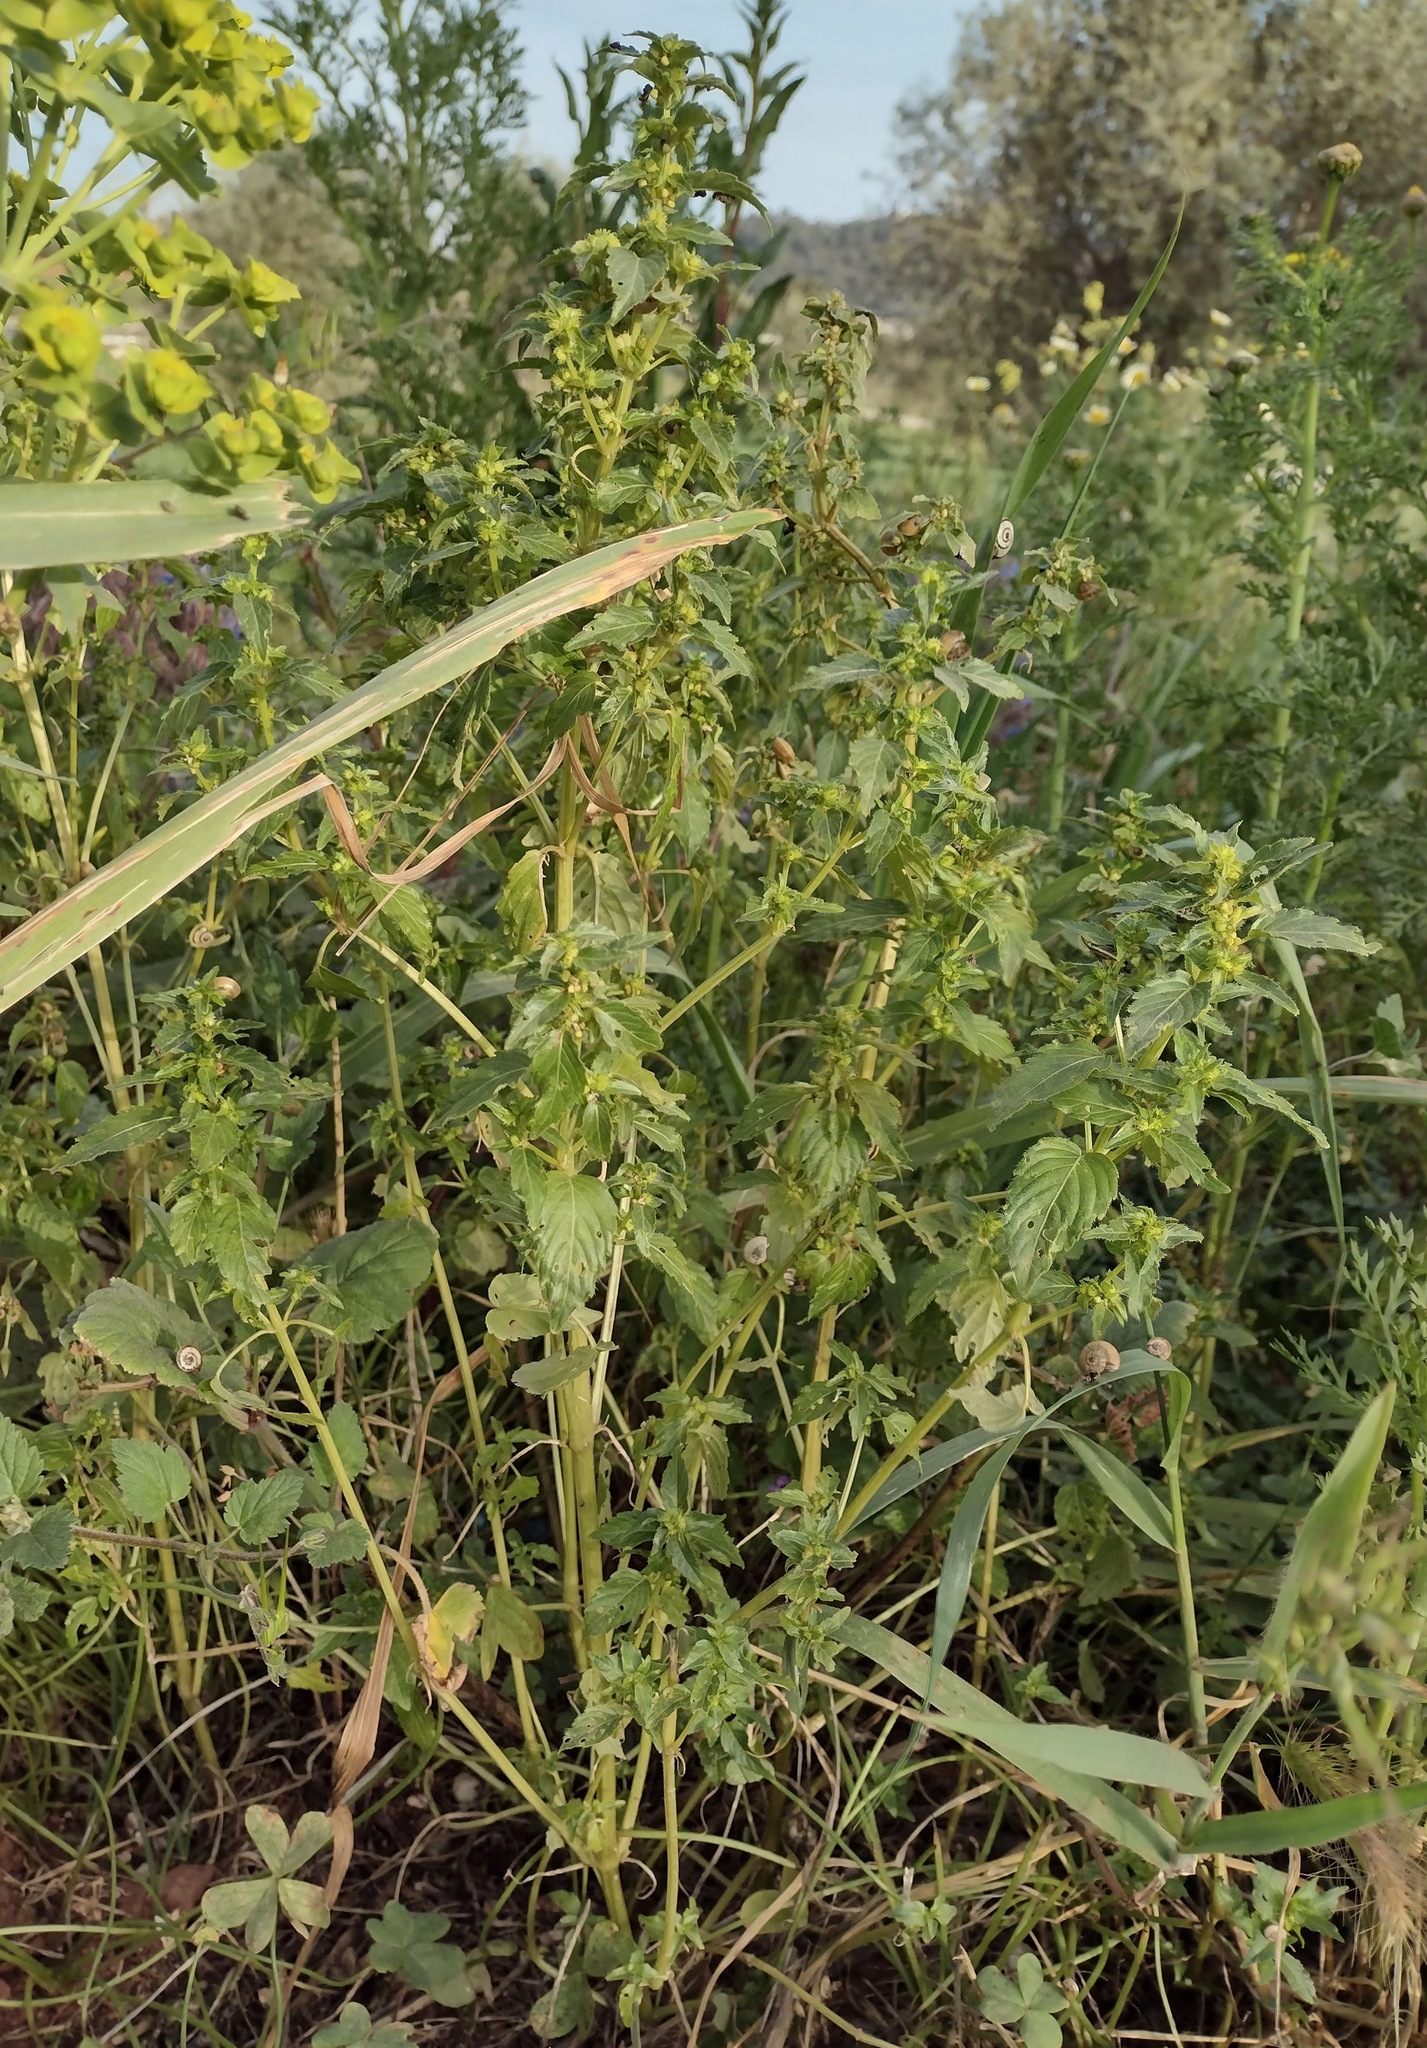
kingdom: Plantae
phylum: Tracheophyta
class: Magnoliopsida
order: Malpighiales
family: Euphorbiaceae
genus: Mercurialis
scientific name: Mercurialis annua
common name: Annual mercury
